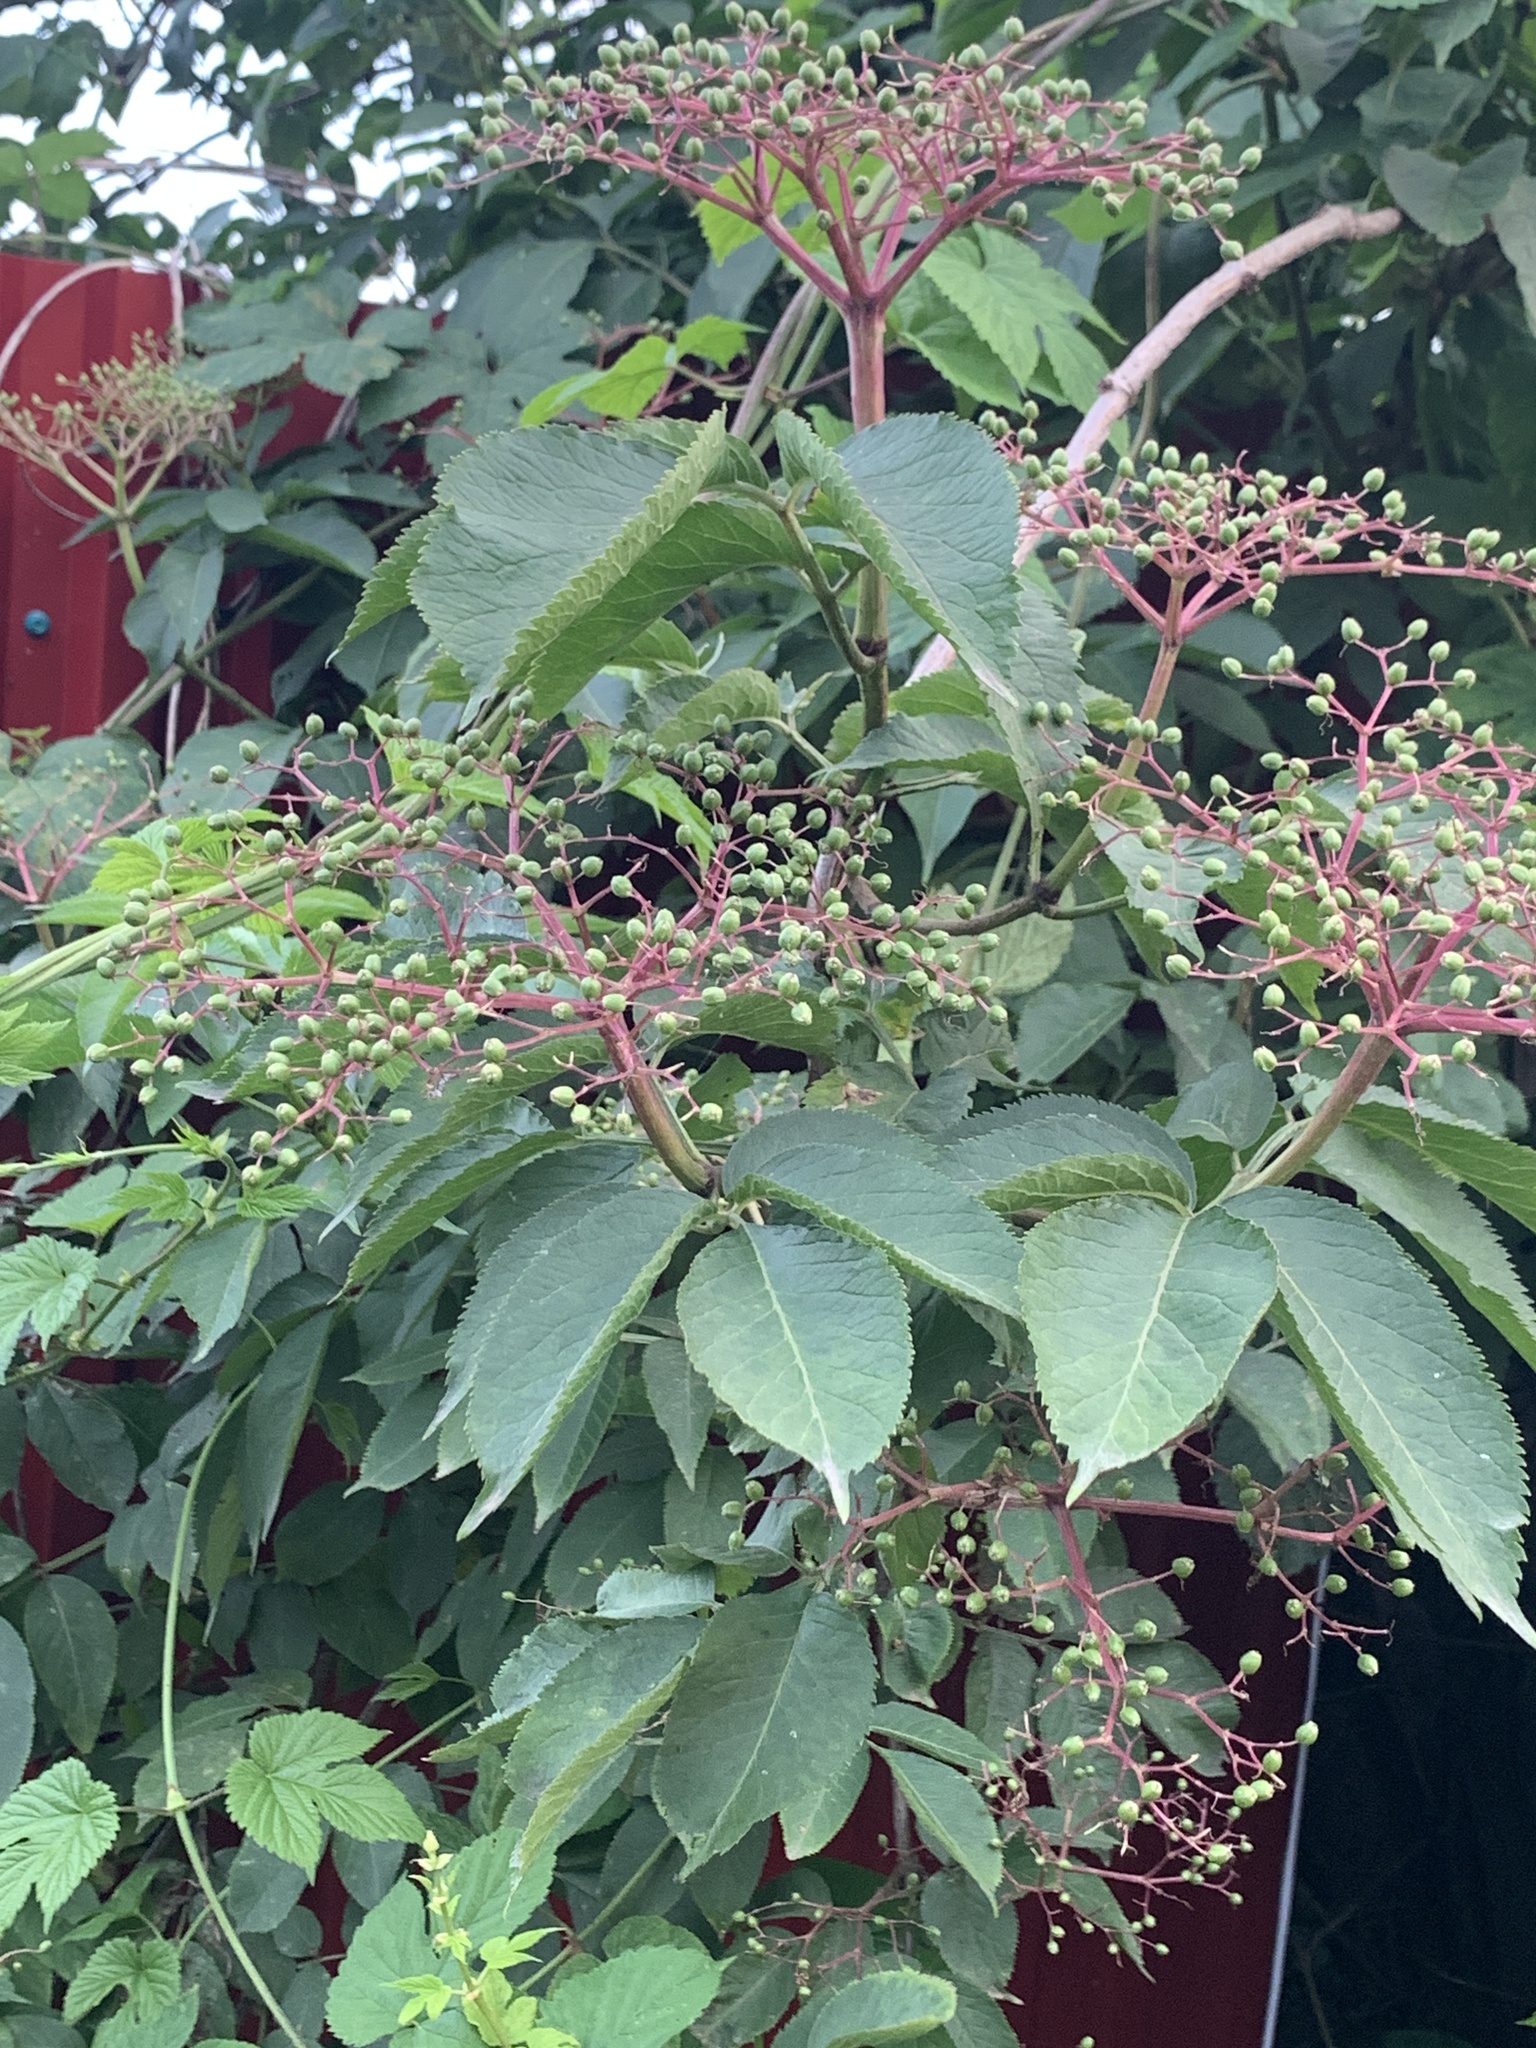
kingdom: Plantae
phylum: Tracheophyta
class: Magnoliopsida
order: Dipsacales
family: Viburnaceae
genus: Sambucus
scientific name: Sambucus nigra
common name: Elder
